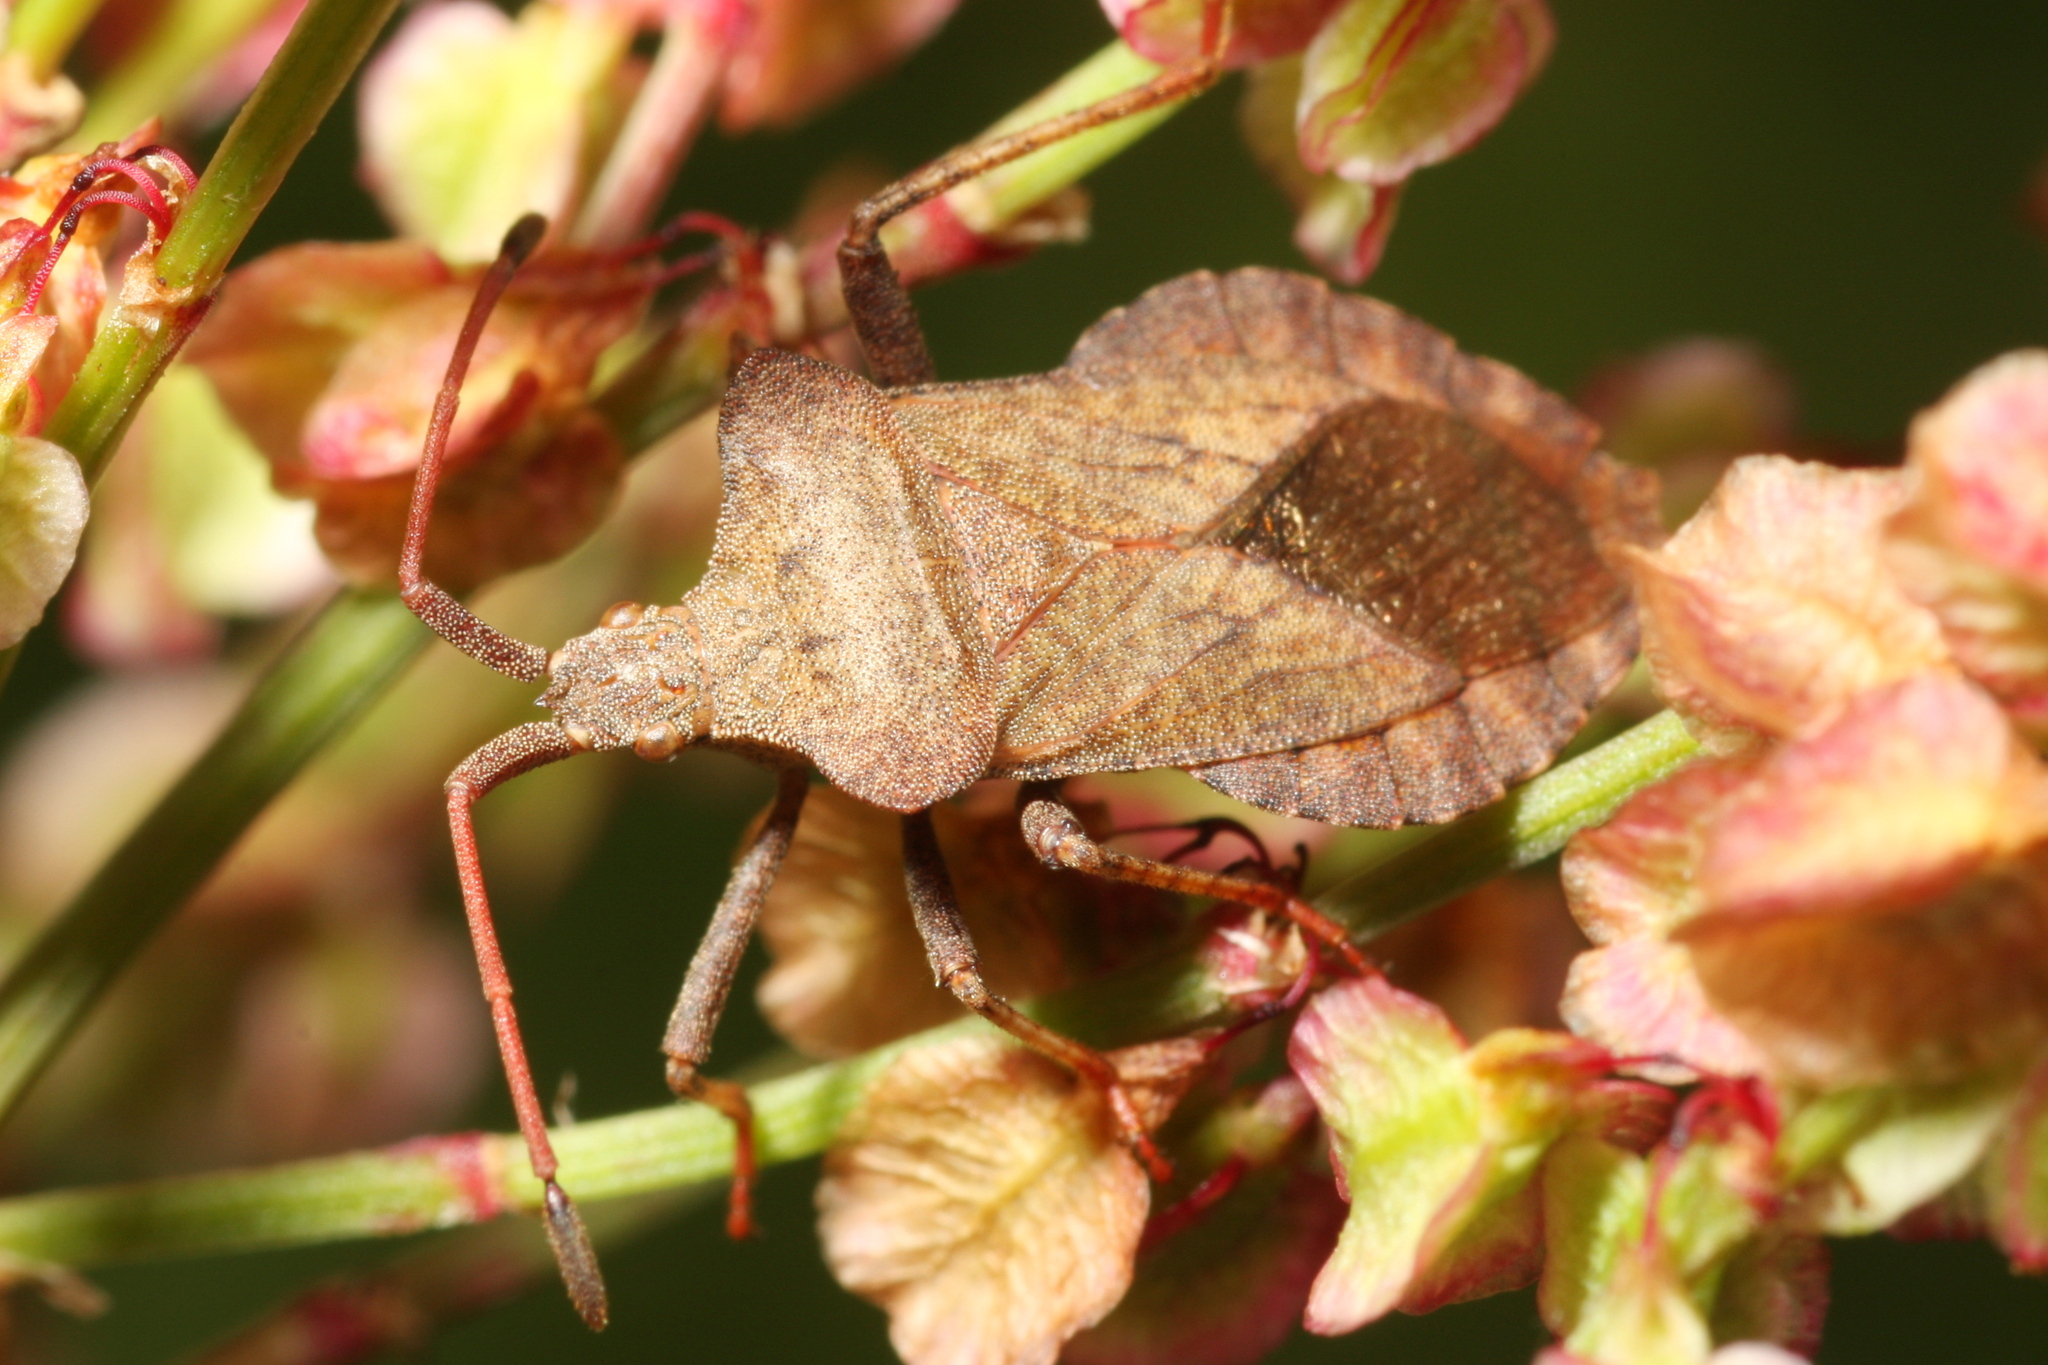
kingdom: Animalia
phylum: Arthropoda
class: Insecta
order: Hemiptera
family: Coreidae
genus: Coreus
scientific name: Coreus marginatus
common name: Dock bug
